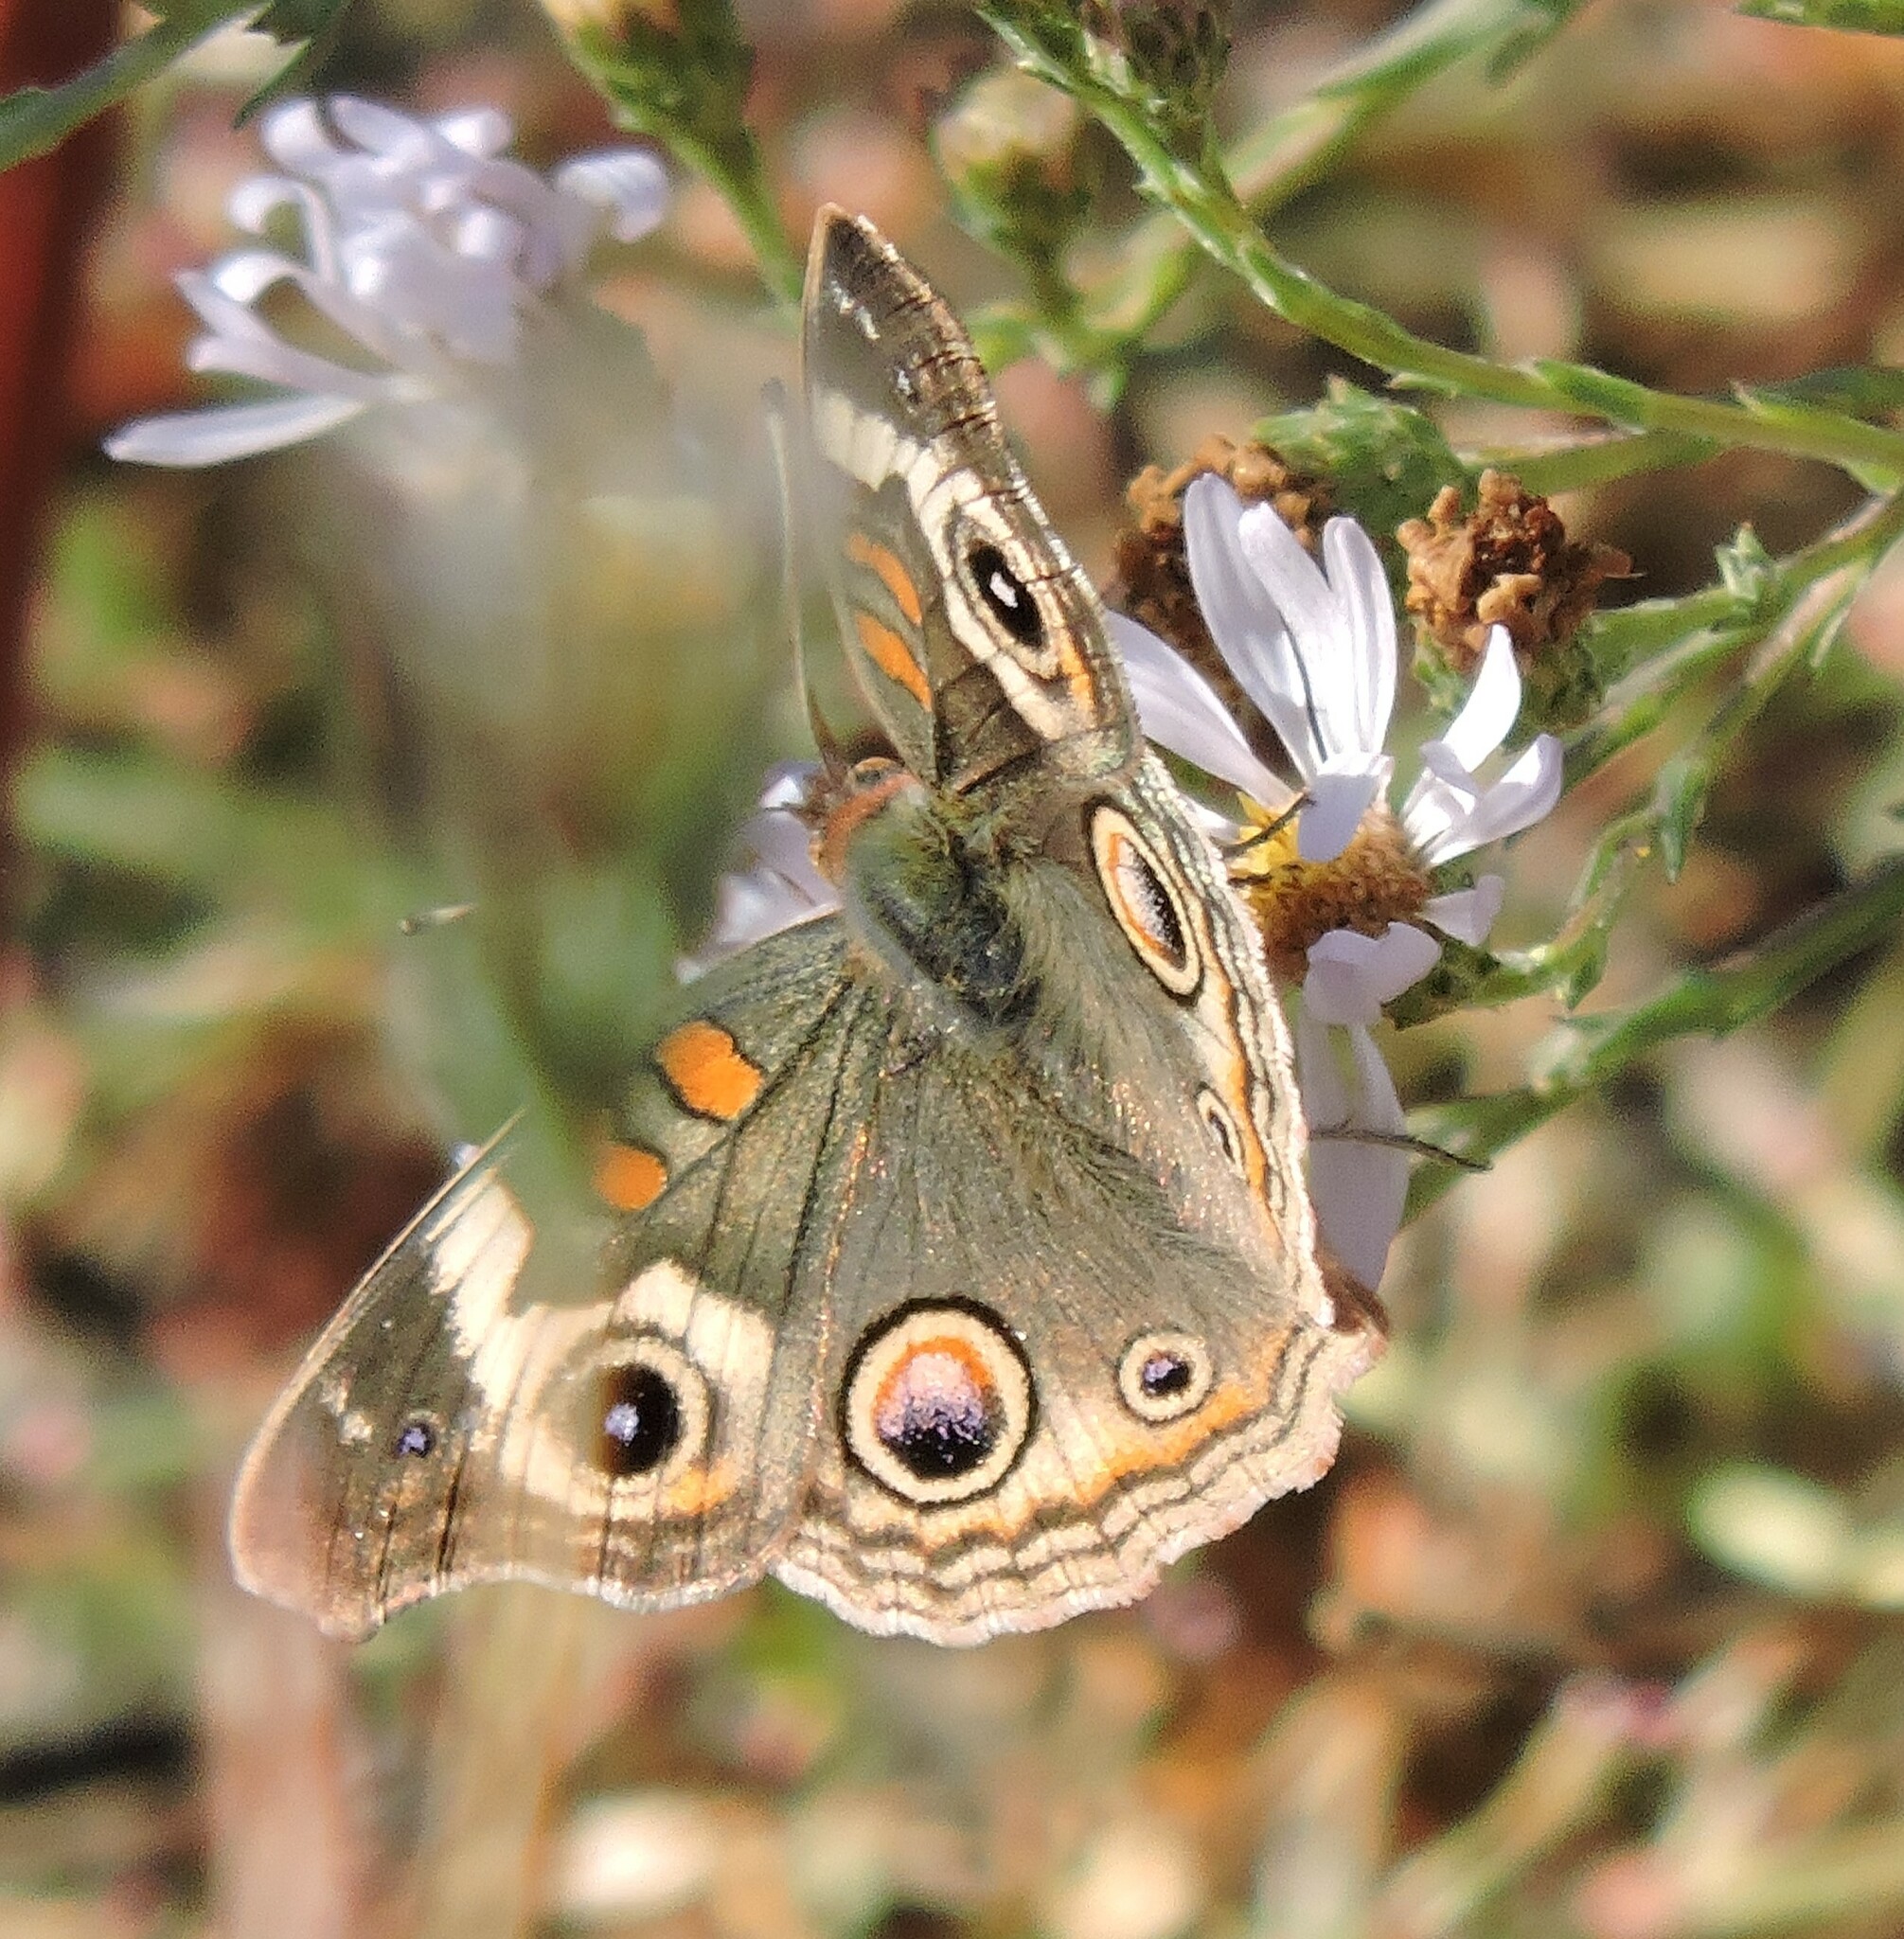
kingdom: Animalia
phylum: Arthropoda
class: Insecta
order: Lepidoptera
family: Nymphalidae
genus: Junonia
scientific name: Junonia grisea
